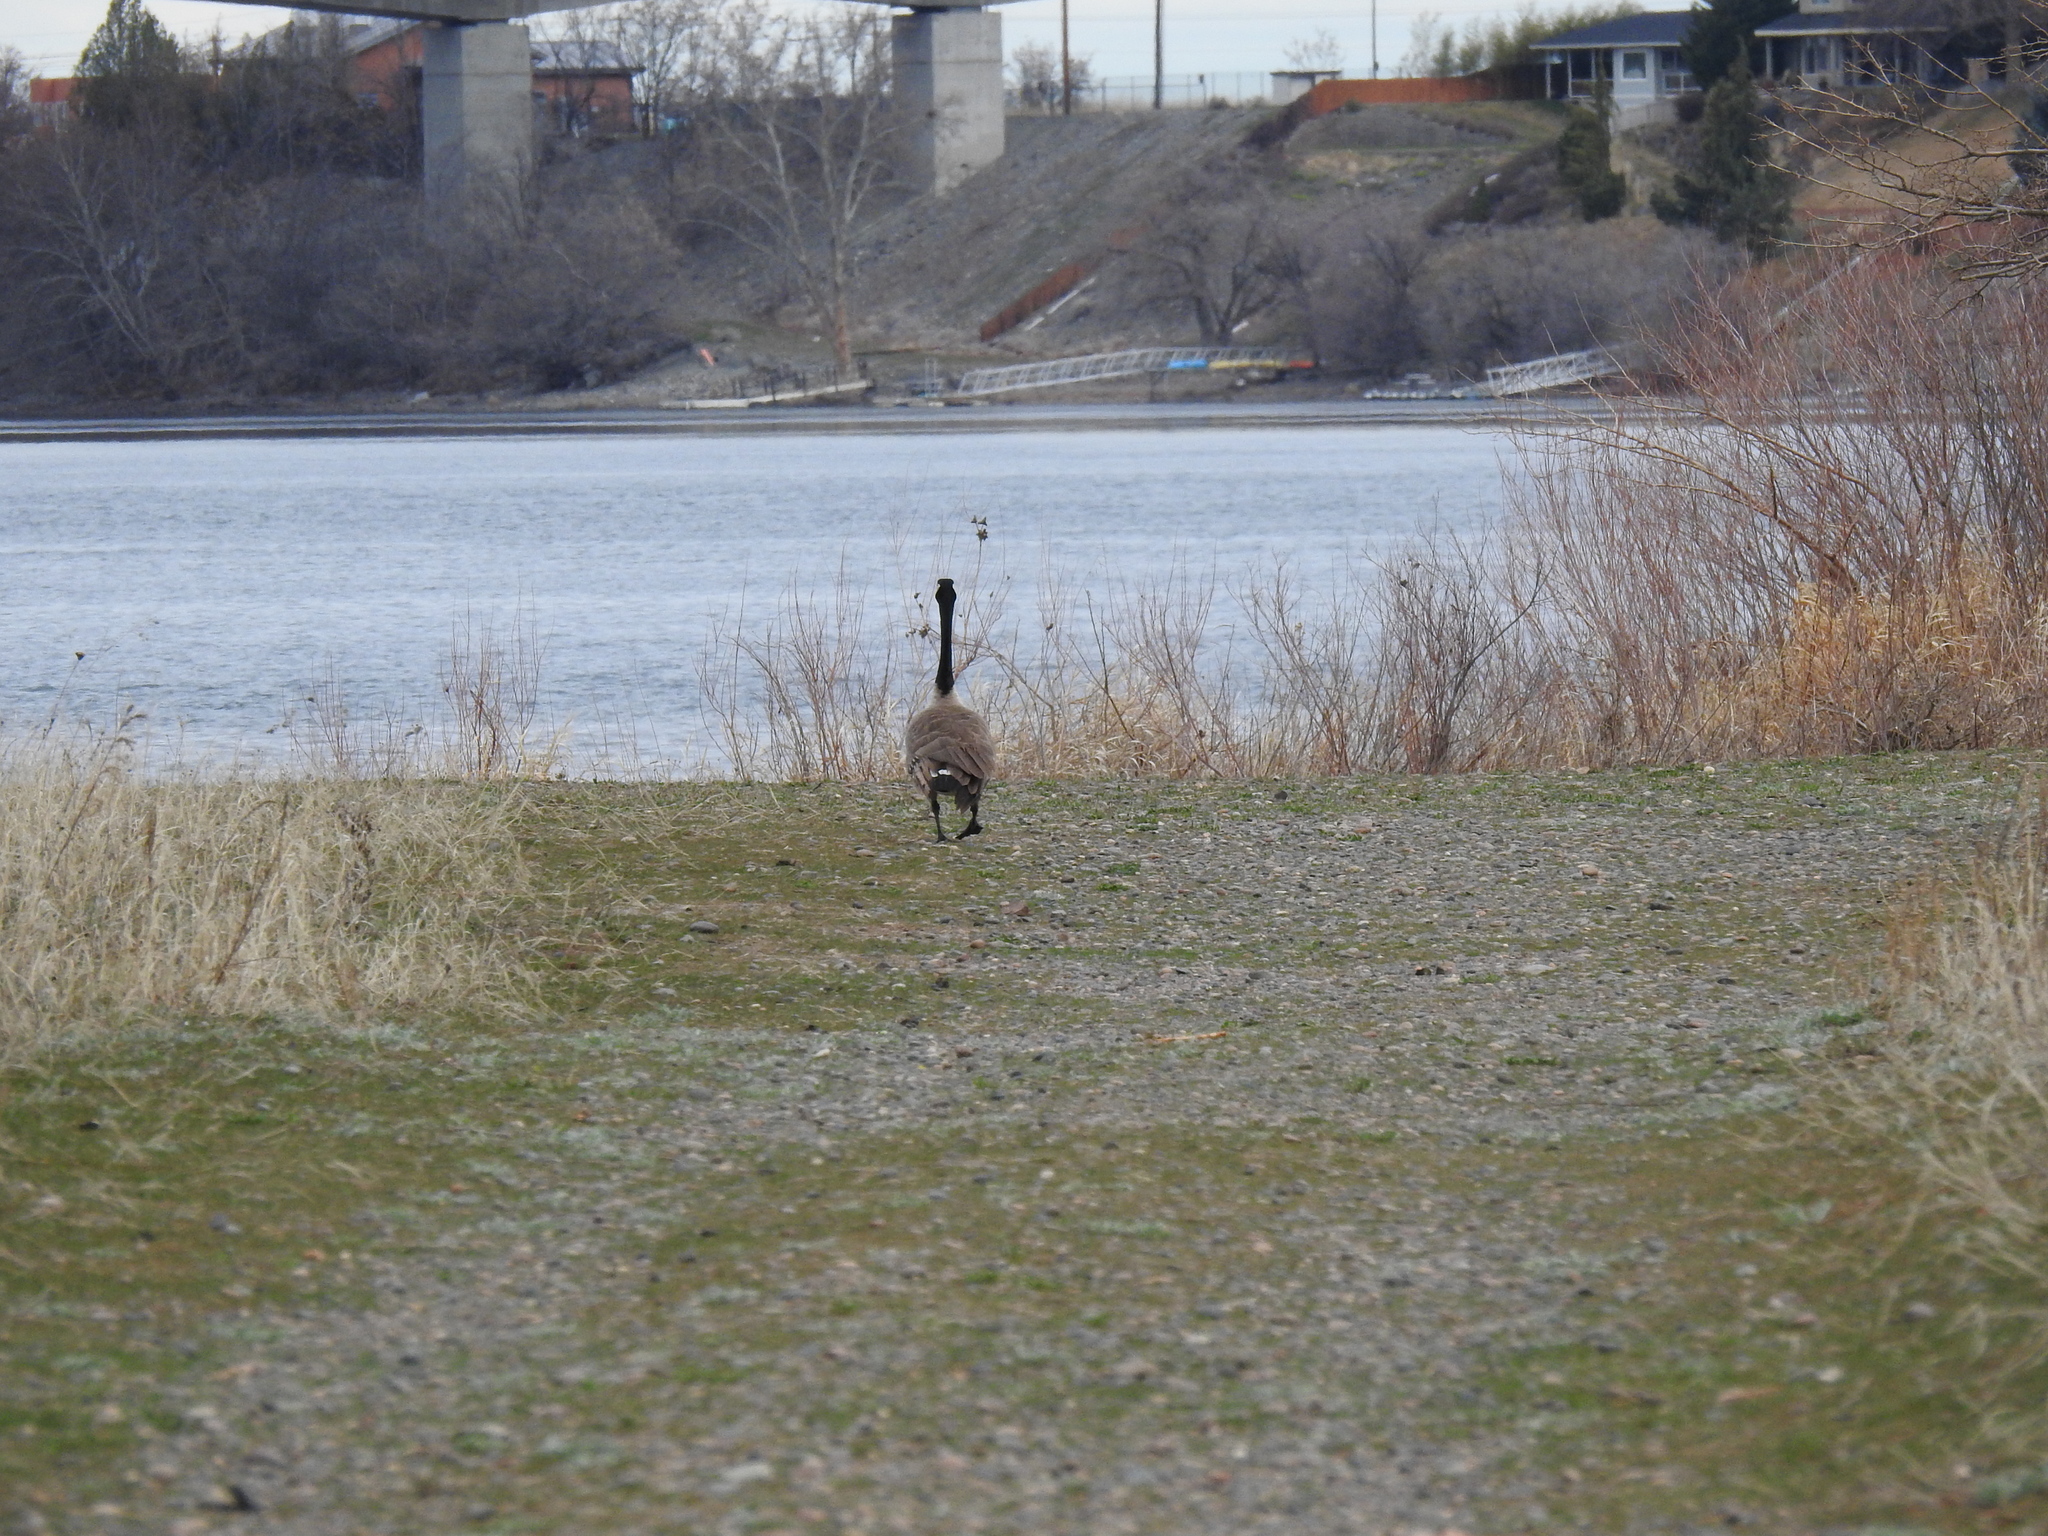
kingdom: Animalia
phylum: Chordata
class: Aves
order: Anseriformes
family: Anatidae
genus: Branta
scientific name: Branta canadensis
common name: Canada goose
